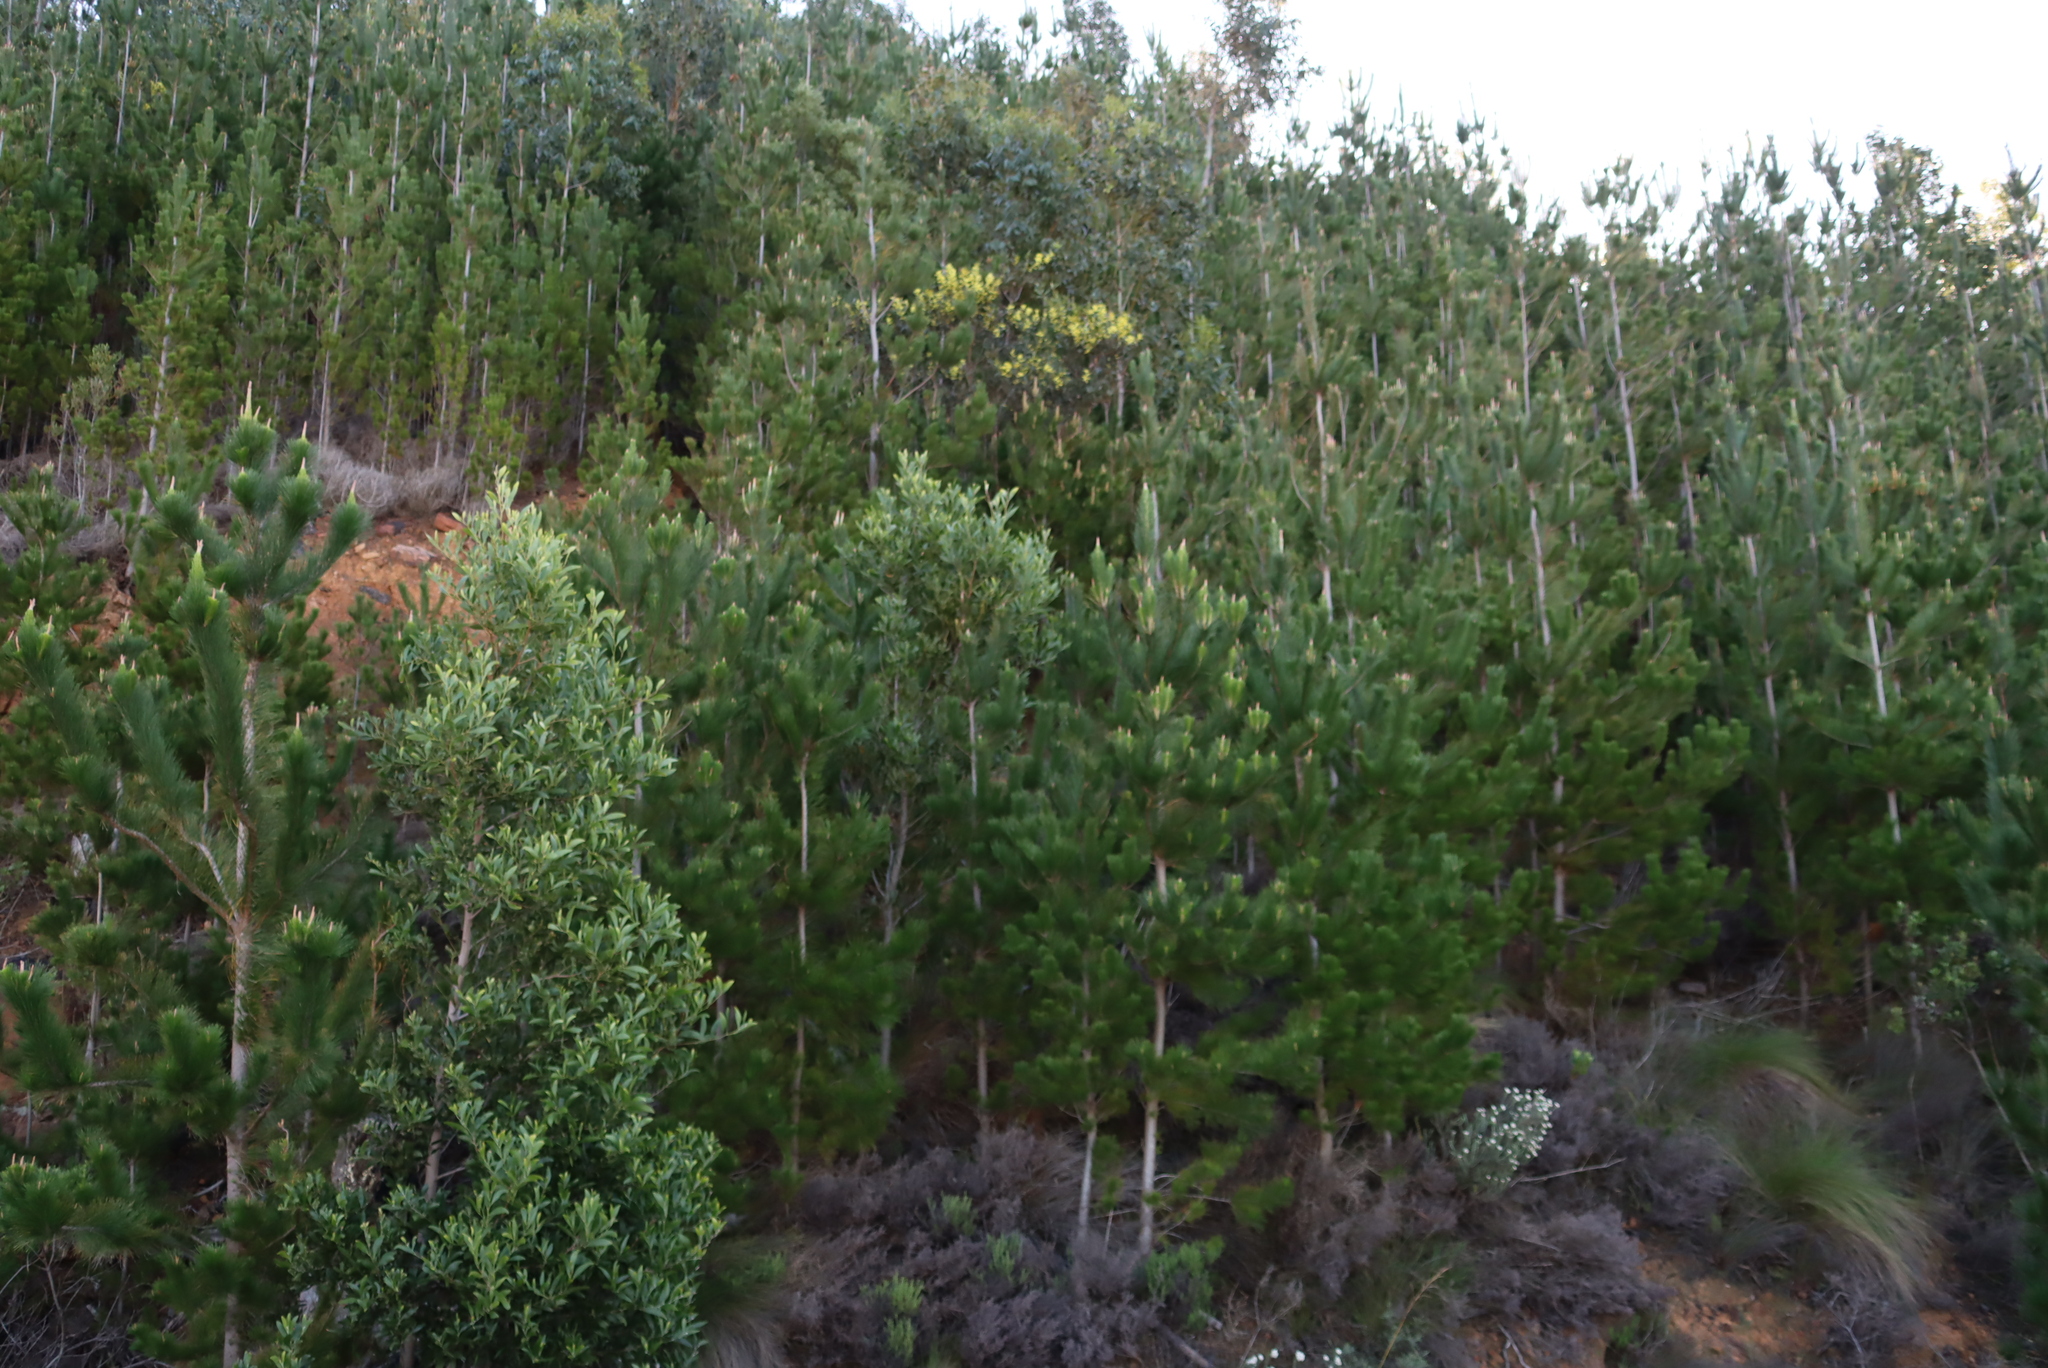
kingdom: Plantae
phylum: Tracheophyta
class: Magnoliopsida
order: Fabales
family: Fabaceae
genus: Acacia
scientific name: Acacia melanoxylon
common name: Blackwood
